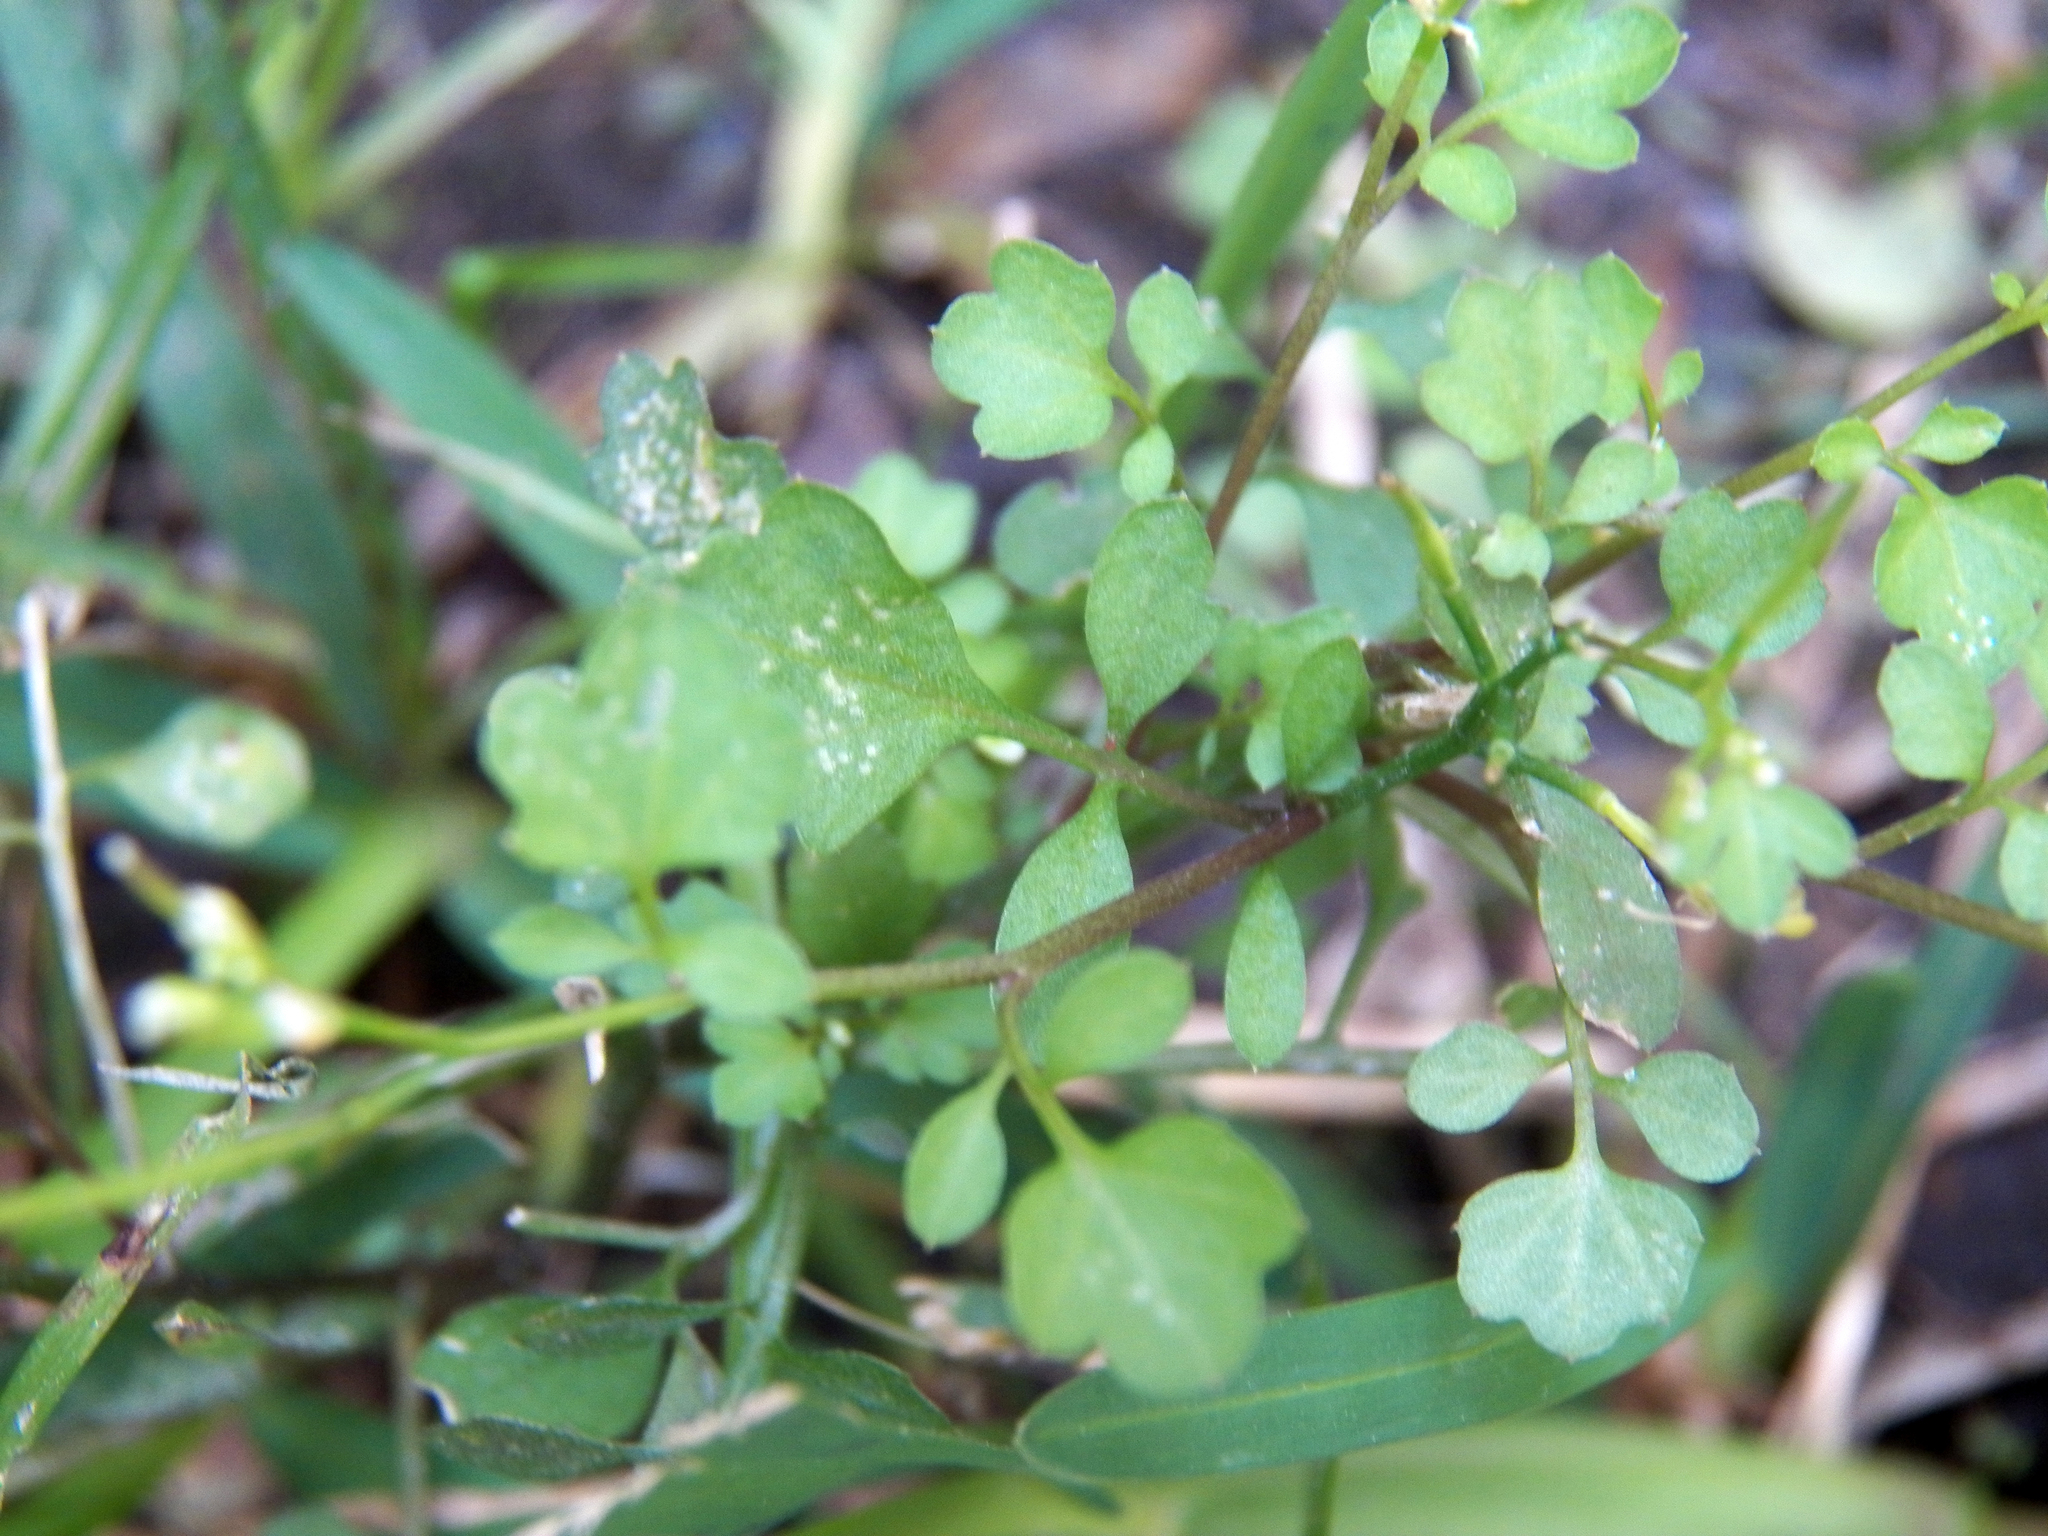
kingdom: Plantae
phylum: Tracheophyta
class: Magnoliopsida
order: Brassicales
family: Brassicaceae
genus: Cardamine
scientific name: Cardamine hirsuta
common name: Hairy bittercress
